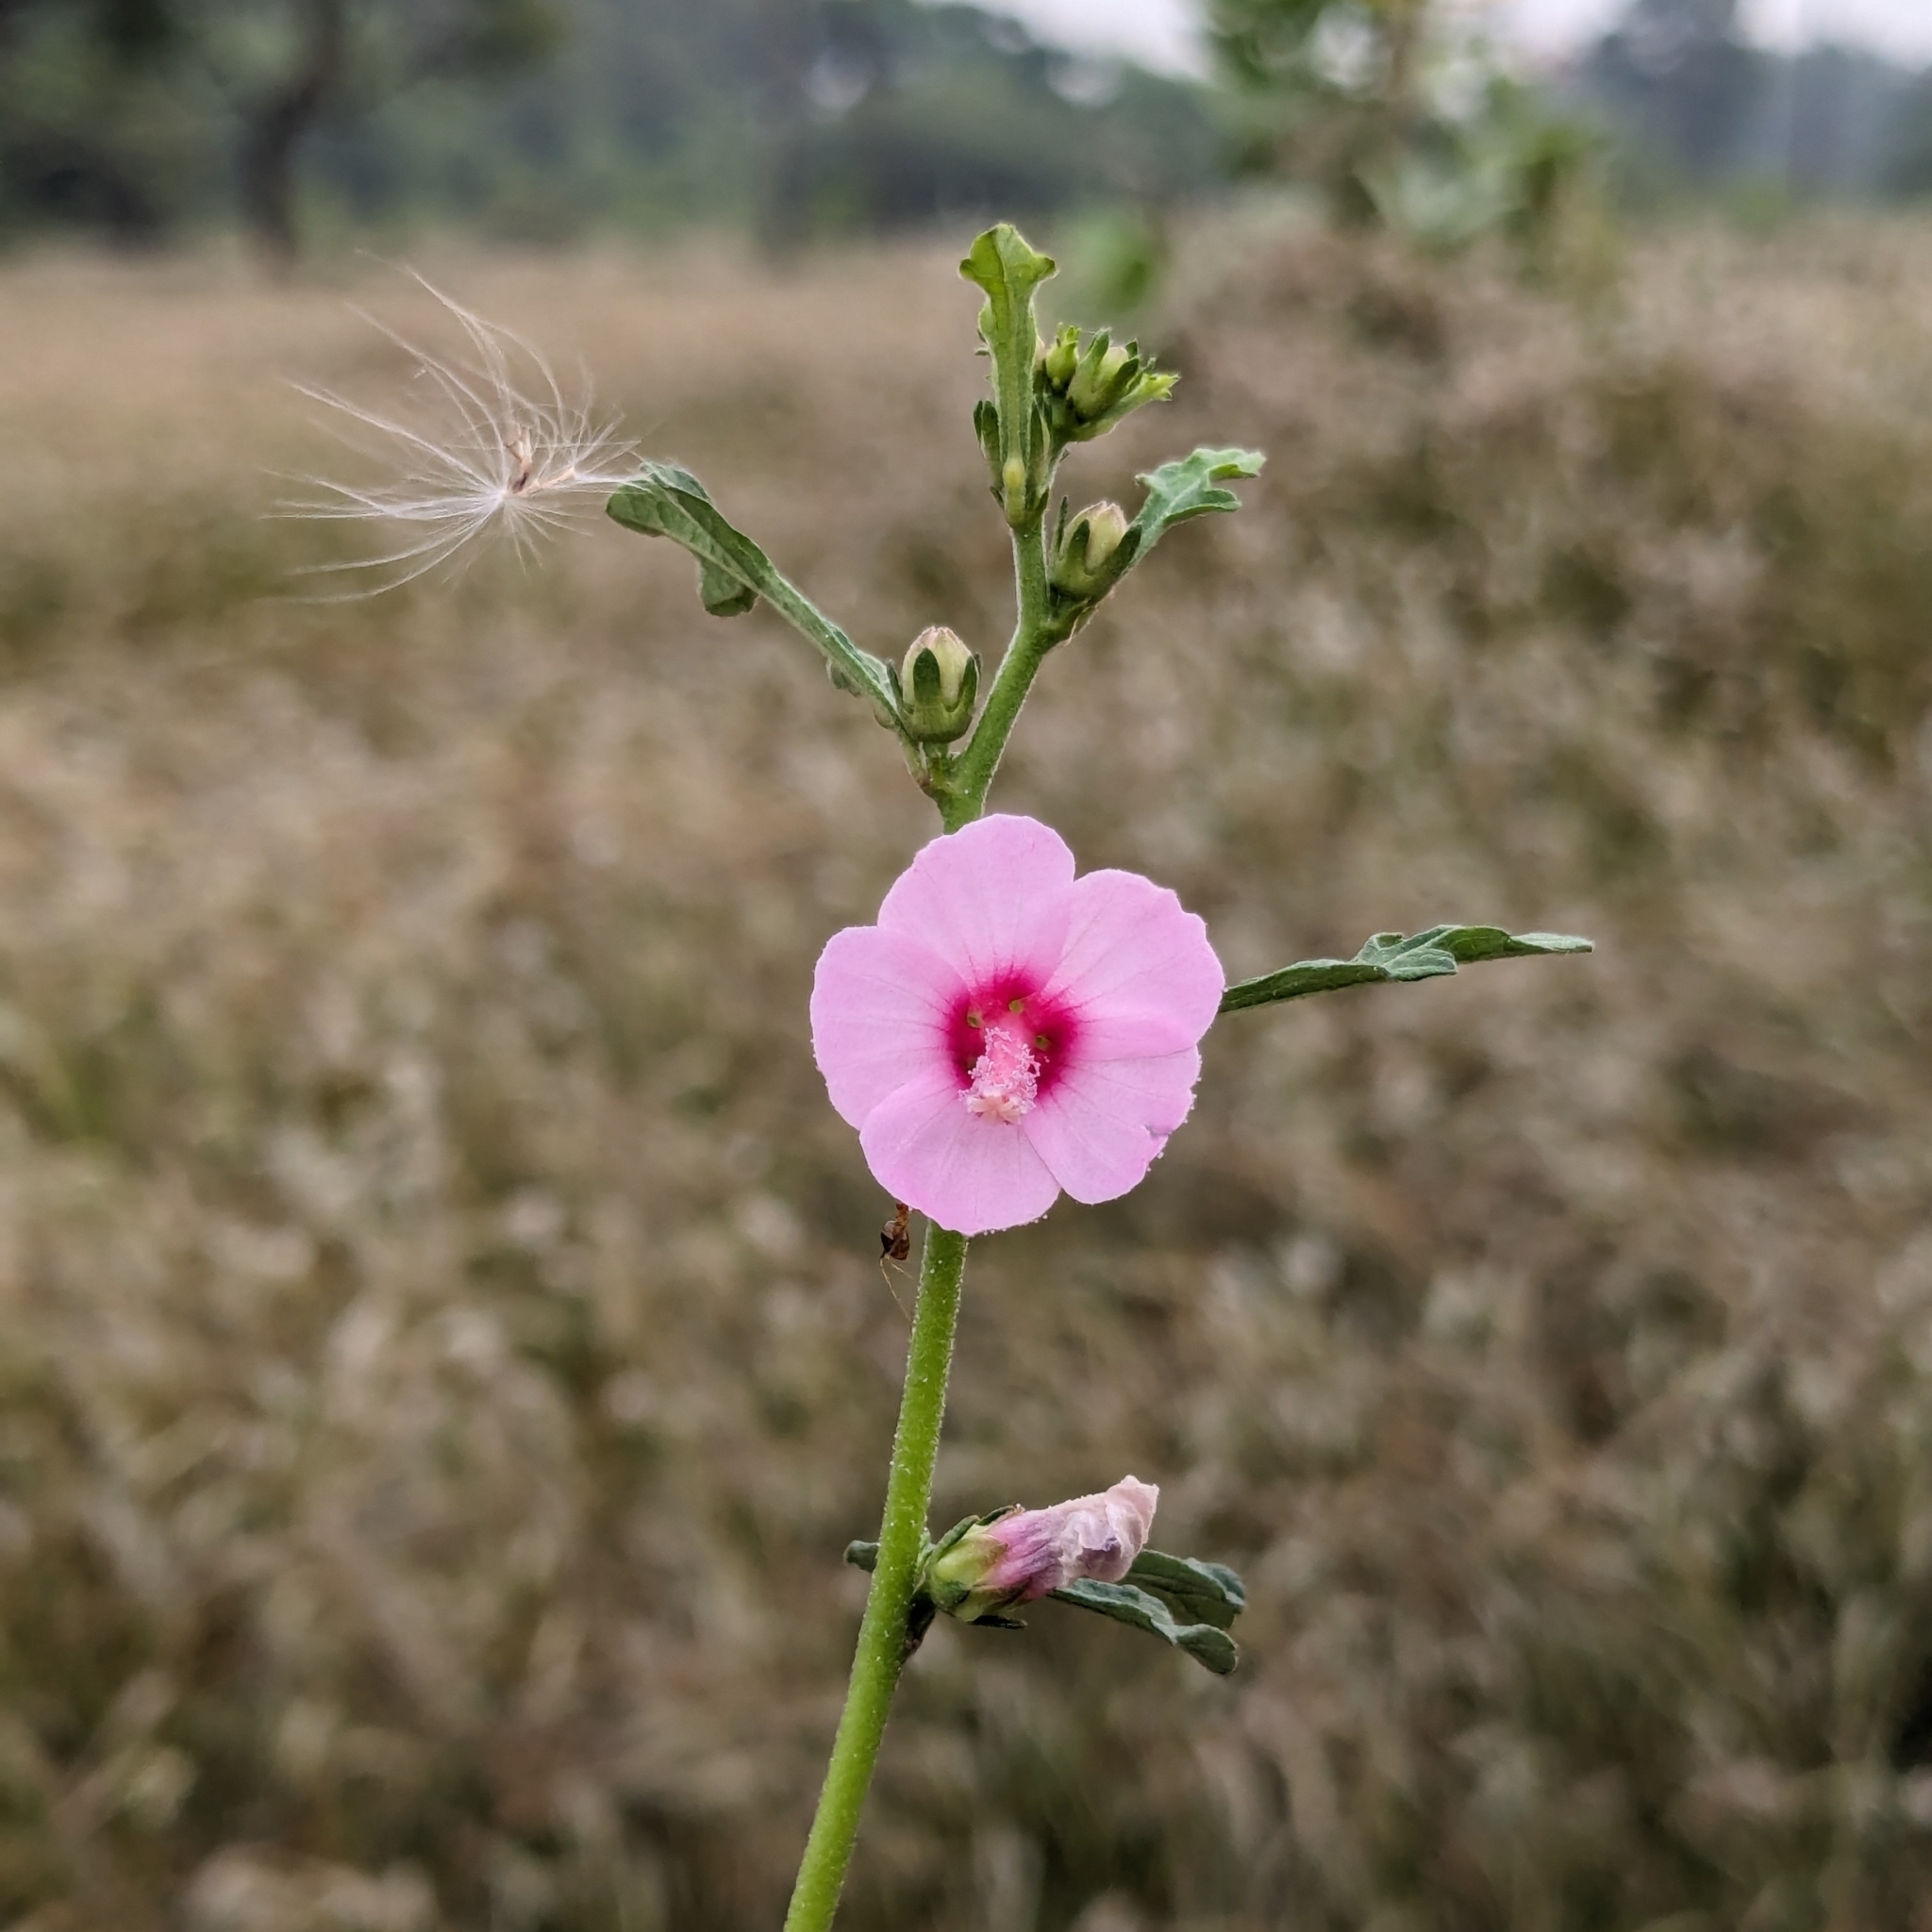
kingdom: Plantae
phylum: Tracheophyta
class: Magnoliopsida
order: Malvales
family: Malvaceae
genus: Urena
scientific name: Urena lobata
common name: Caesarweed
